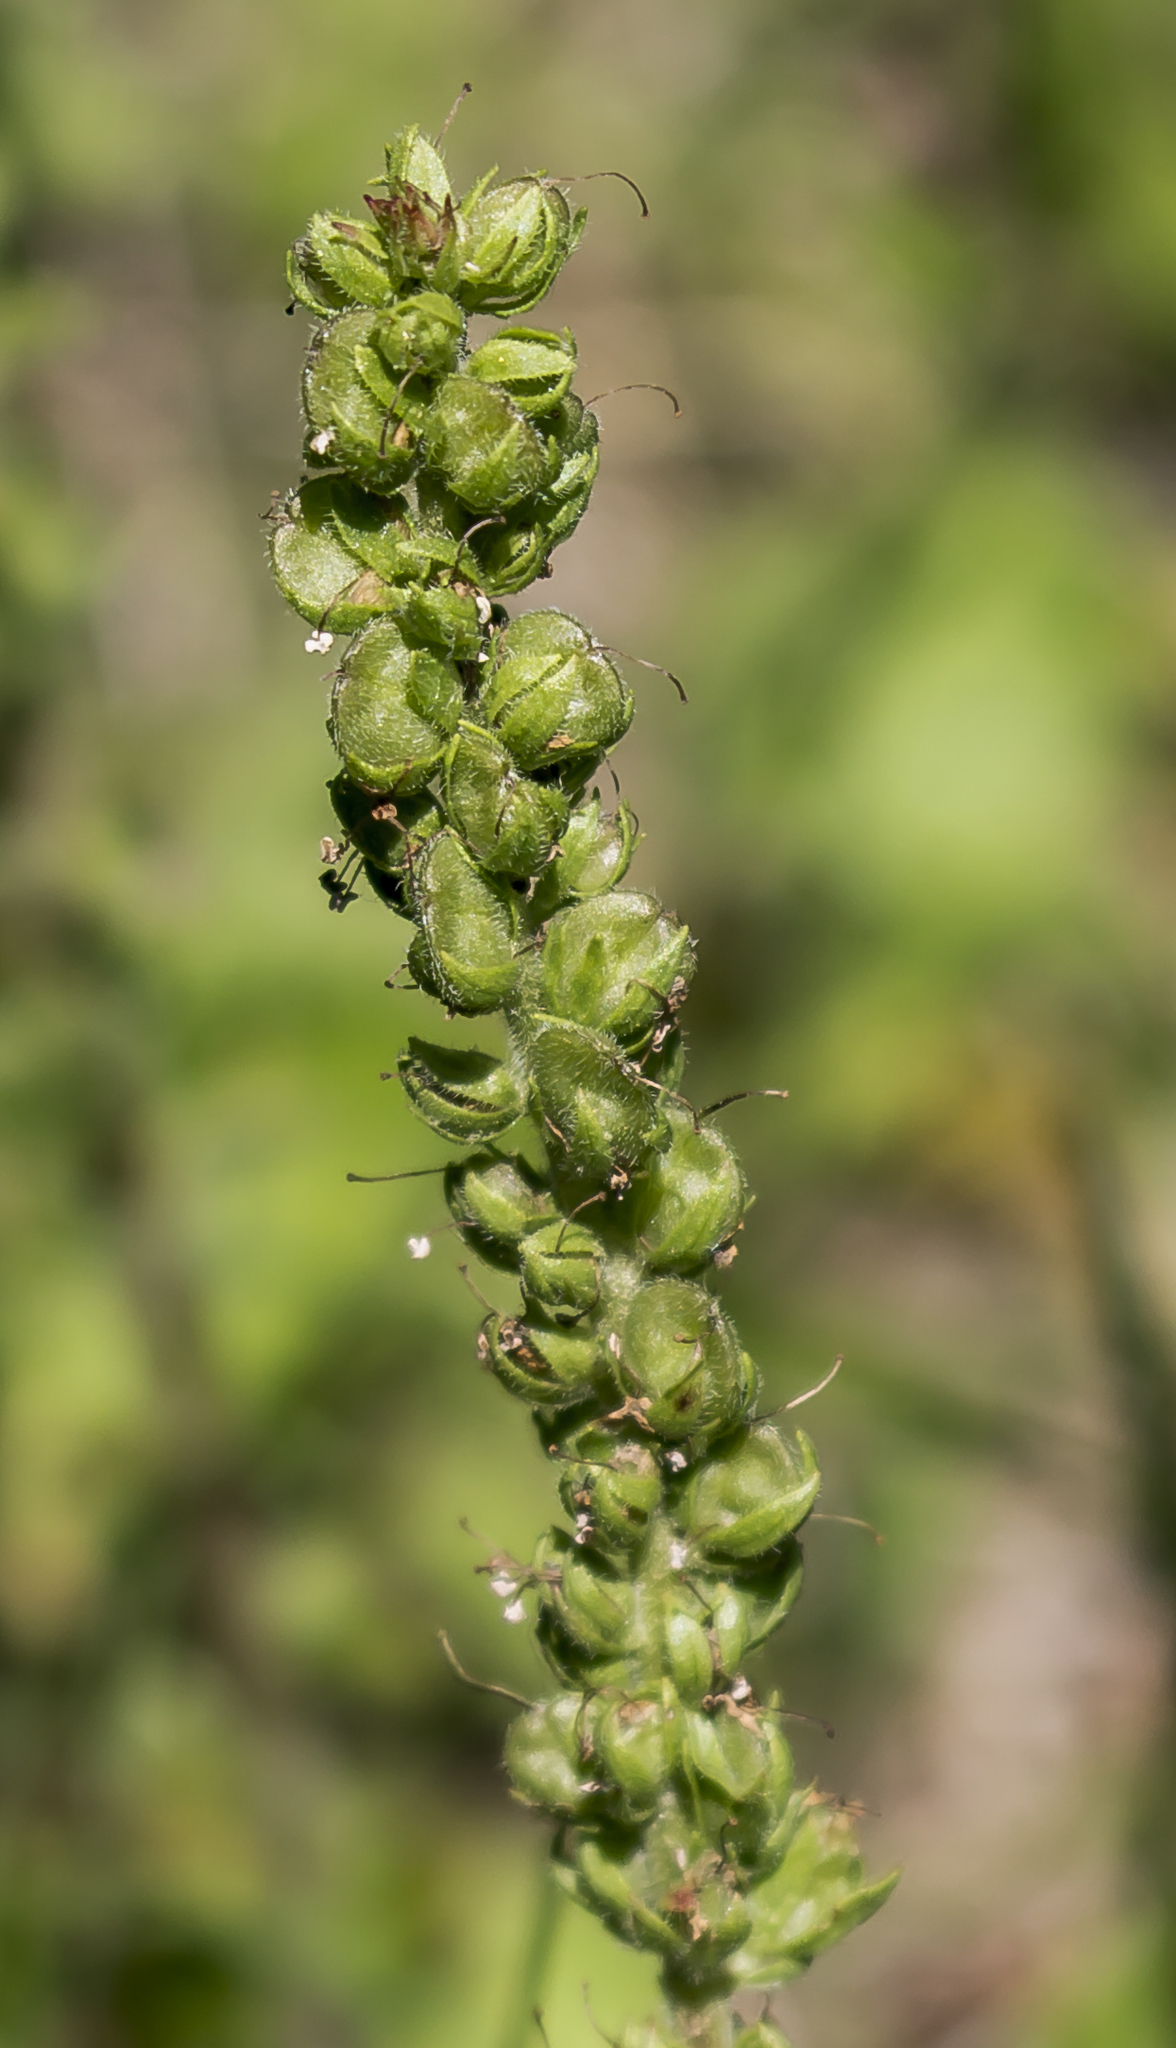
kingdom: Plantae
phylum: Tracheophyta
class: Magnoliopsida
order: Lamiales
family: Plantaginaceae
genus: Synthyris
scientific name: Synthyris bullii
